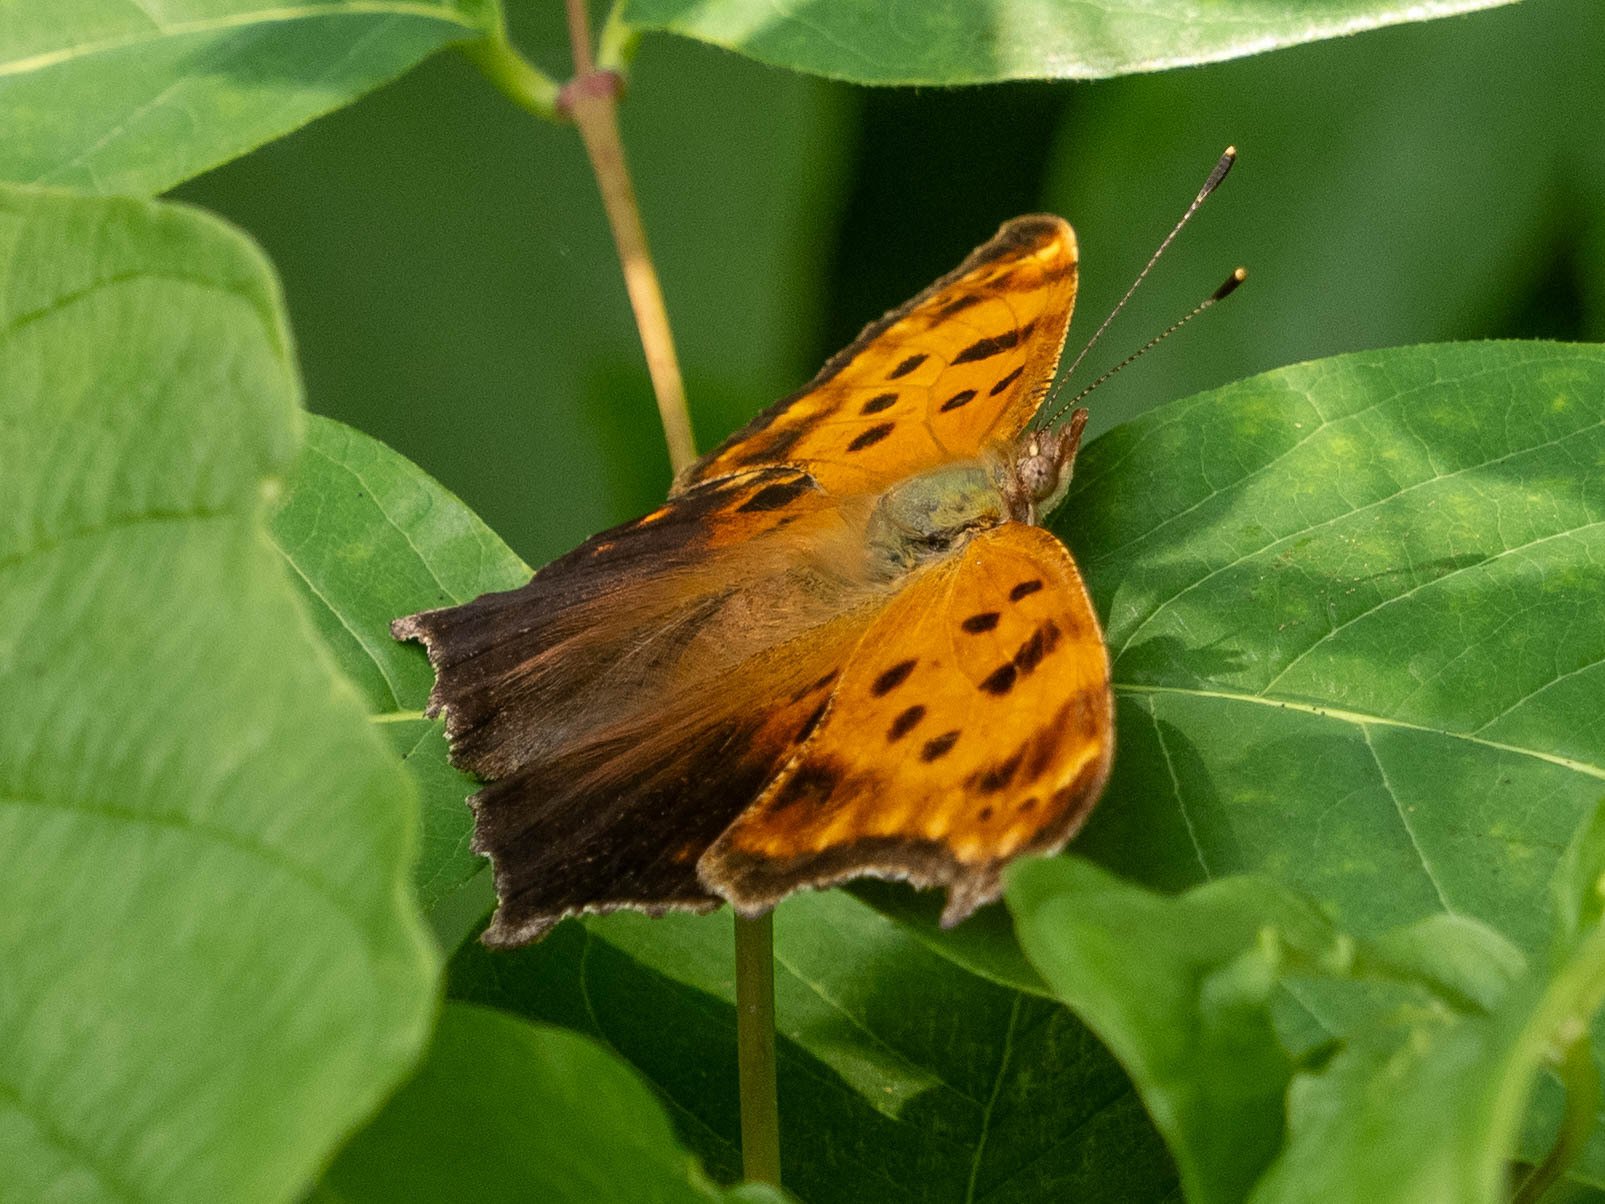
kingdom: Animalia
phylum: Arthropoda
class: Insecta
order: Lepidoptera
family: Nymphalidae
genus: Polygonia
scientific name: Polygonia comma
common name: Eastern comma
